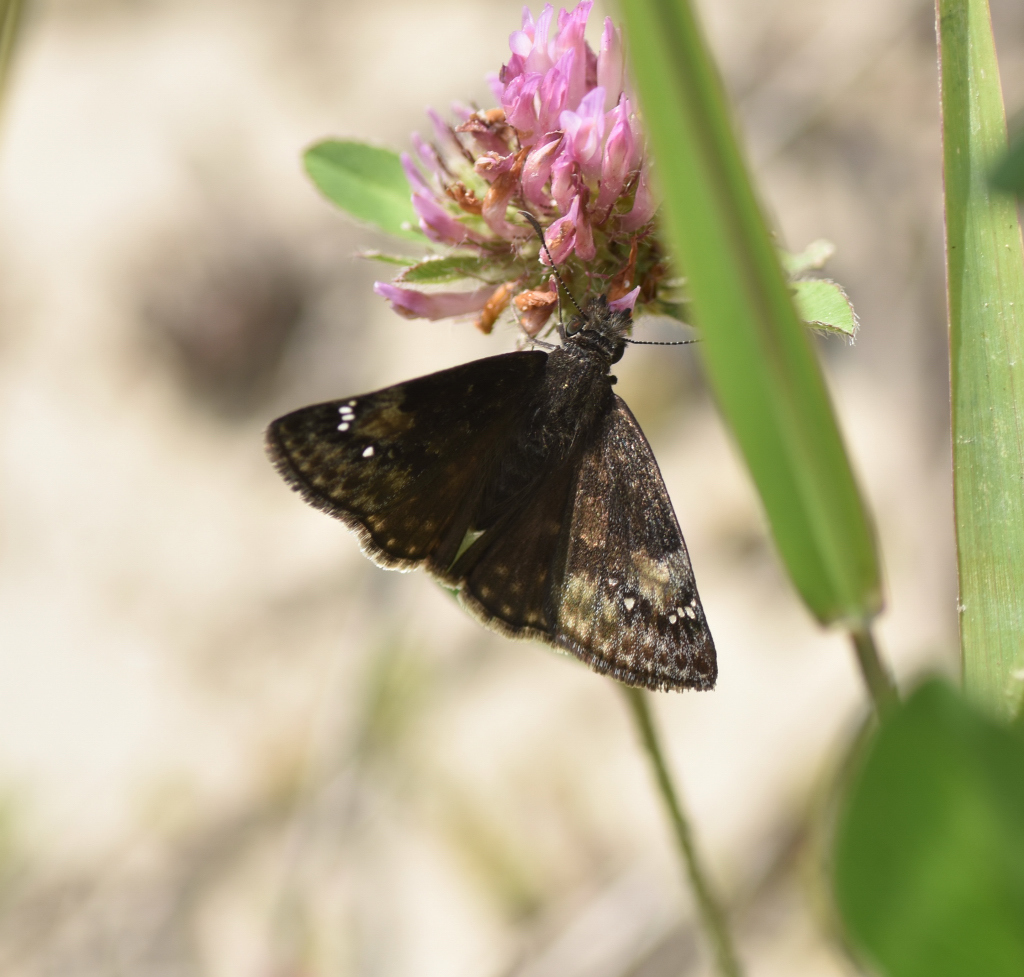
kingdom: Animalia
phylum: Arthropoda
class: Insecta
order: Lepidoptera
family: Hesperiidae
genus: Erynnis
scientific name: Erynnis baptisiae
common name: Wild indigo duskywing
